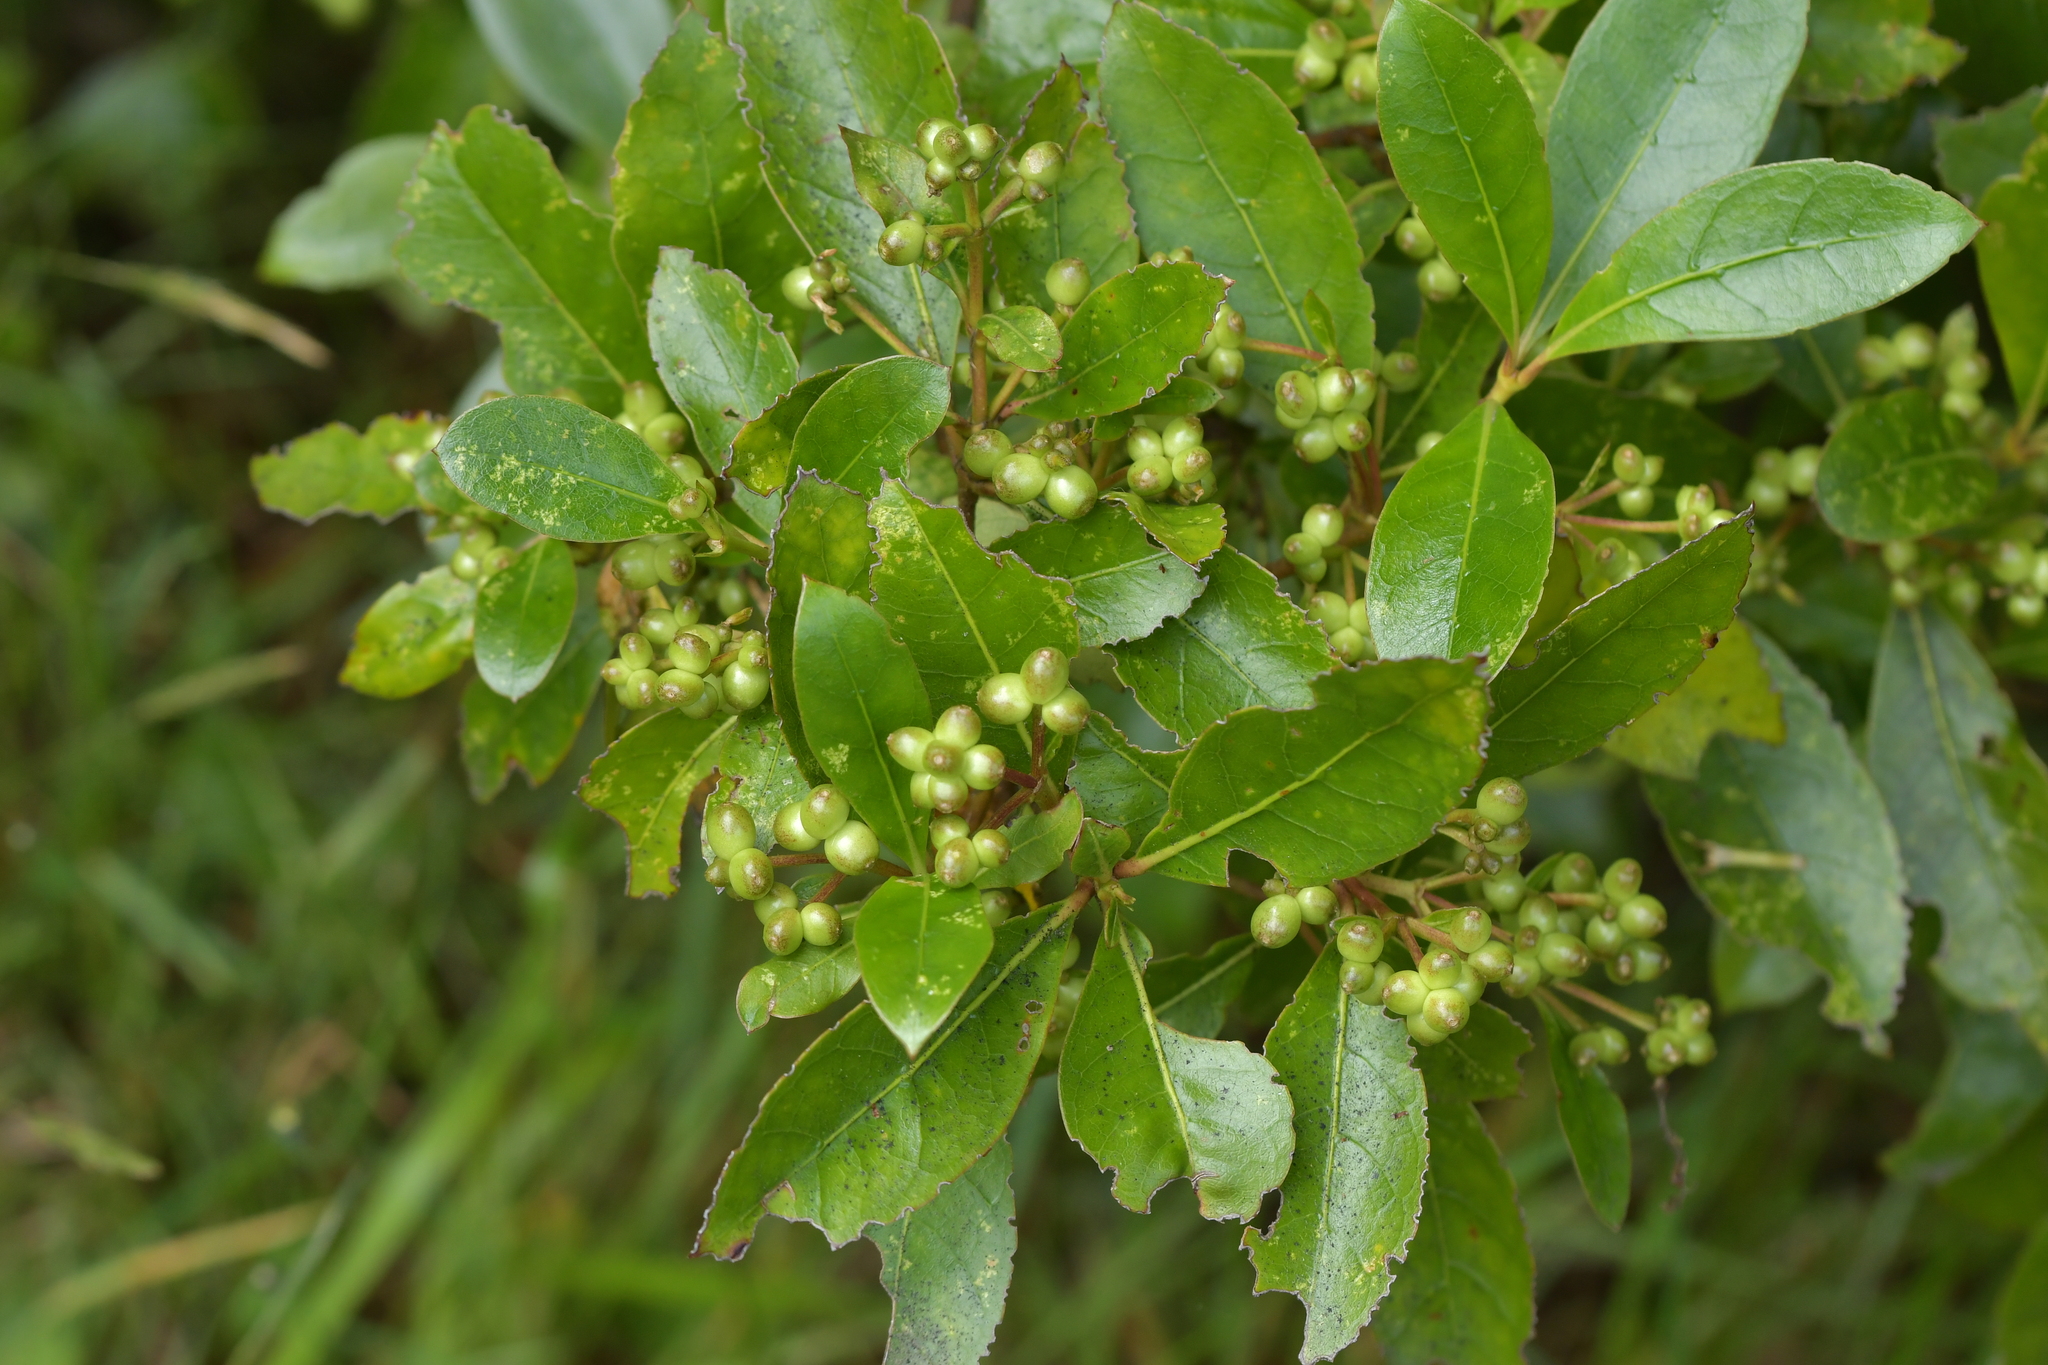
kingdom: Plantae
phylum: Tracheophyta
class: Magnoliopsida
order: Gentianales
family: Rubiaceae
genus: Coprosma
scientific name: Coprosma lucida
